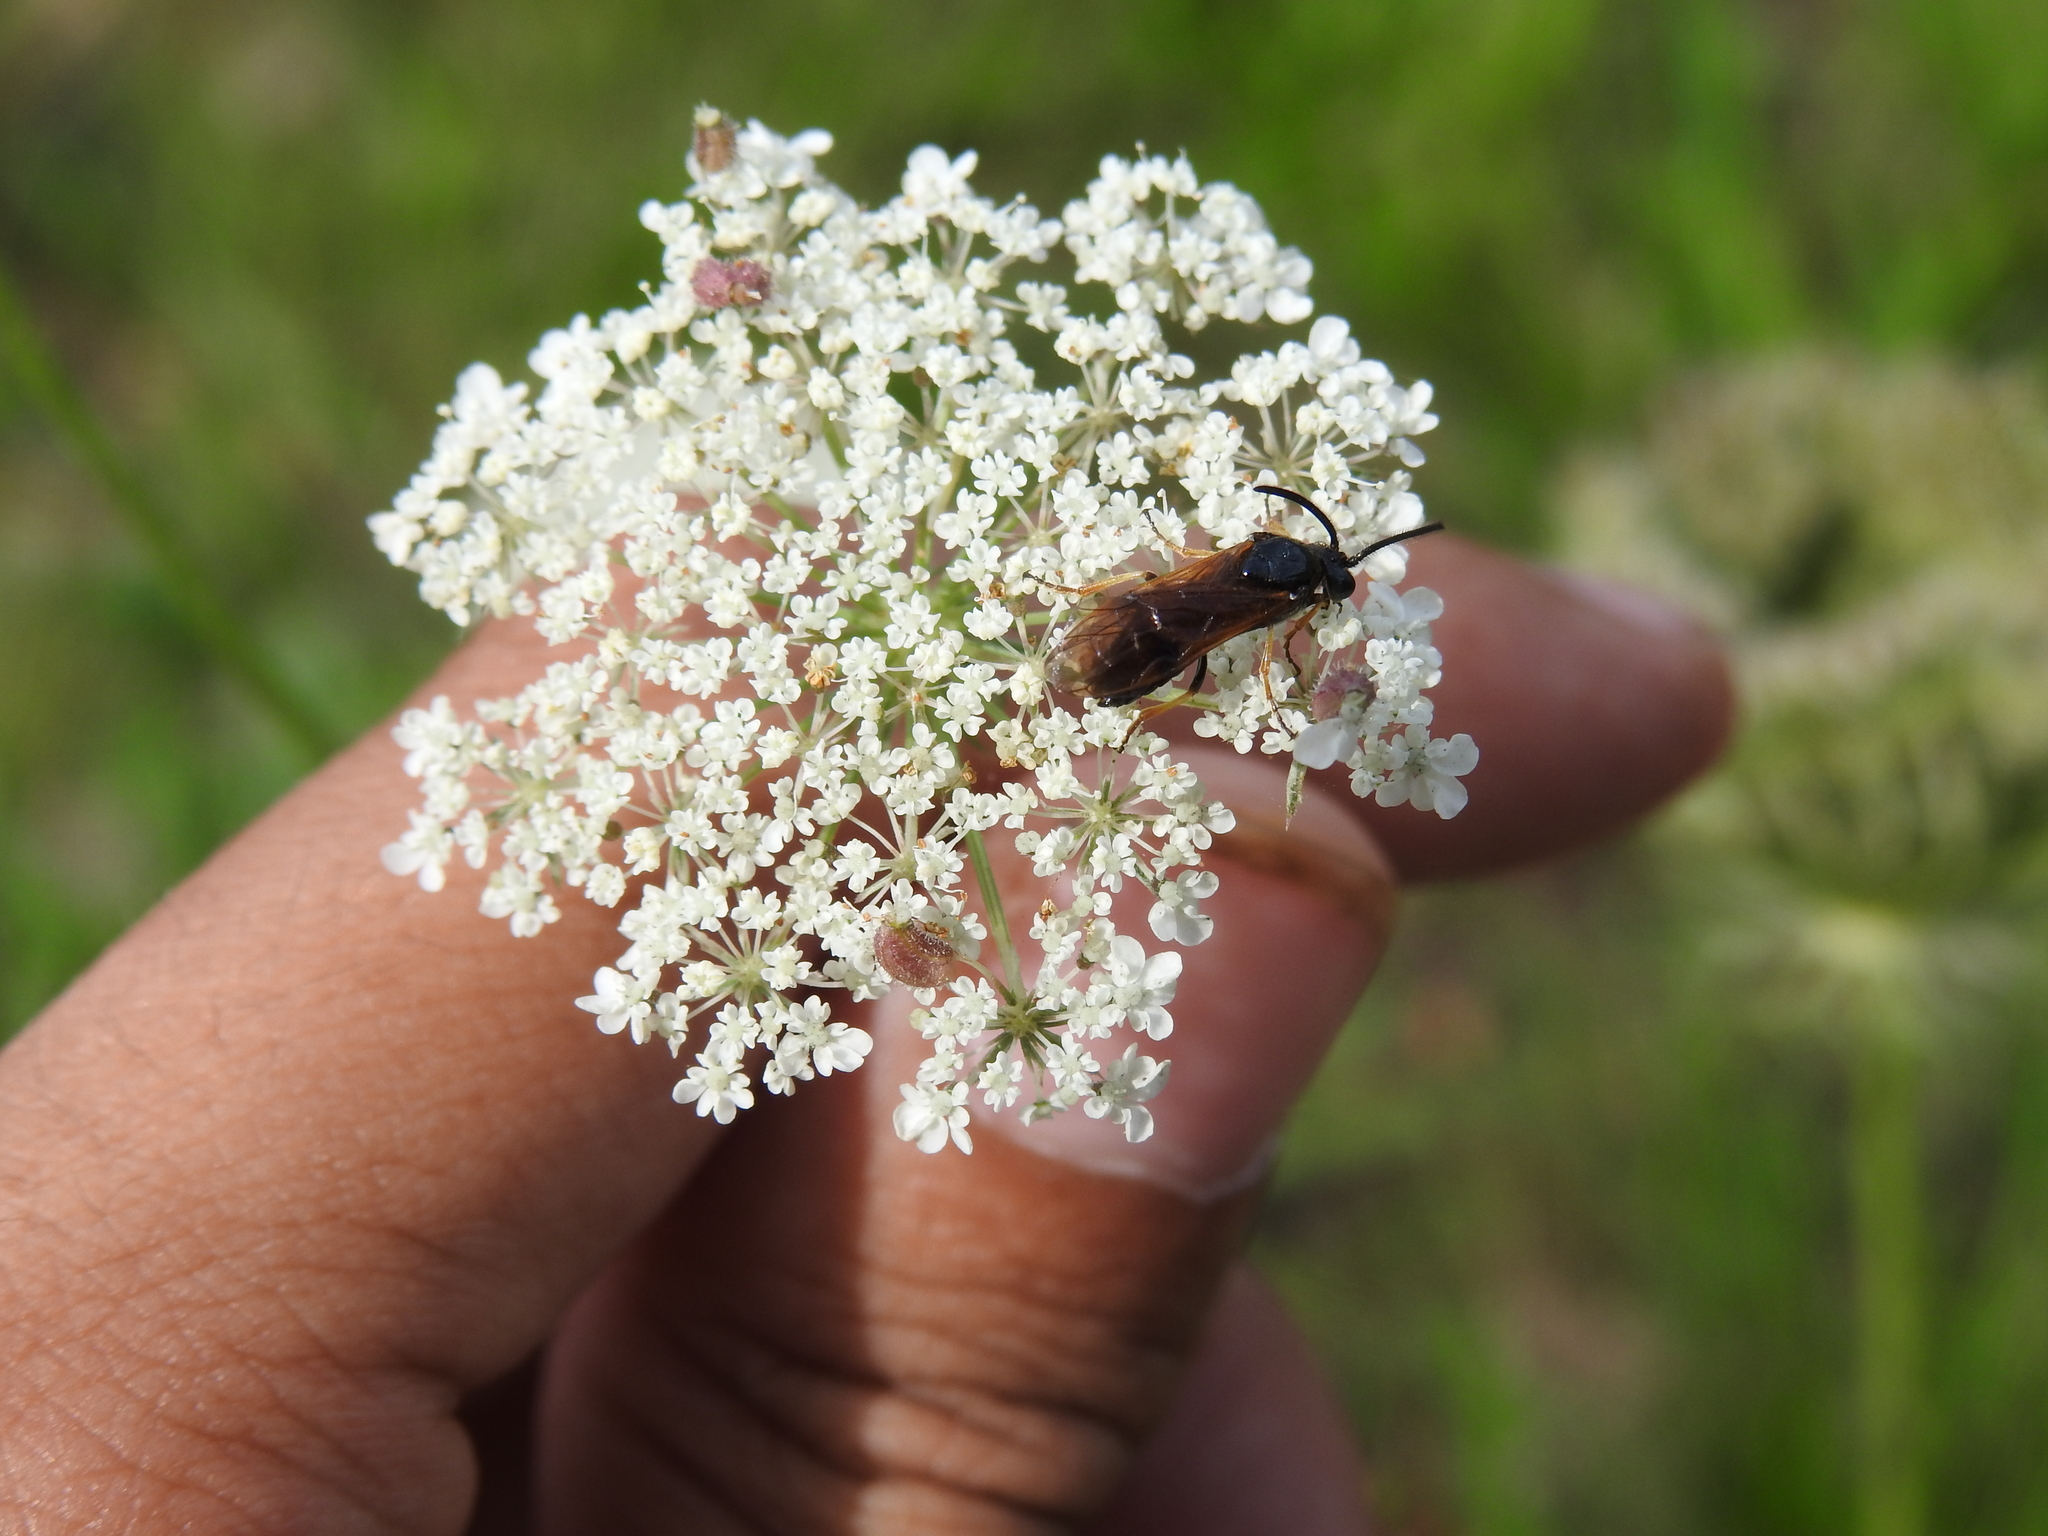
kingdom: Animalia
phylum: Arthropoda
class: Insecta
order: Hymenoptera
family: Argidae
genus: Arge
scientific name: Arge ustulata
